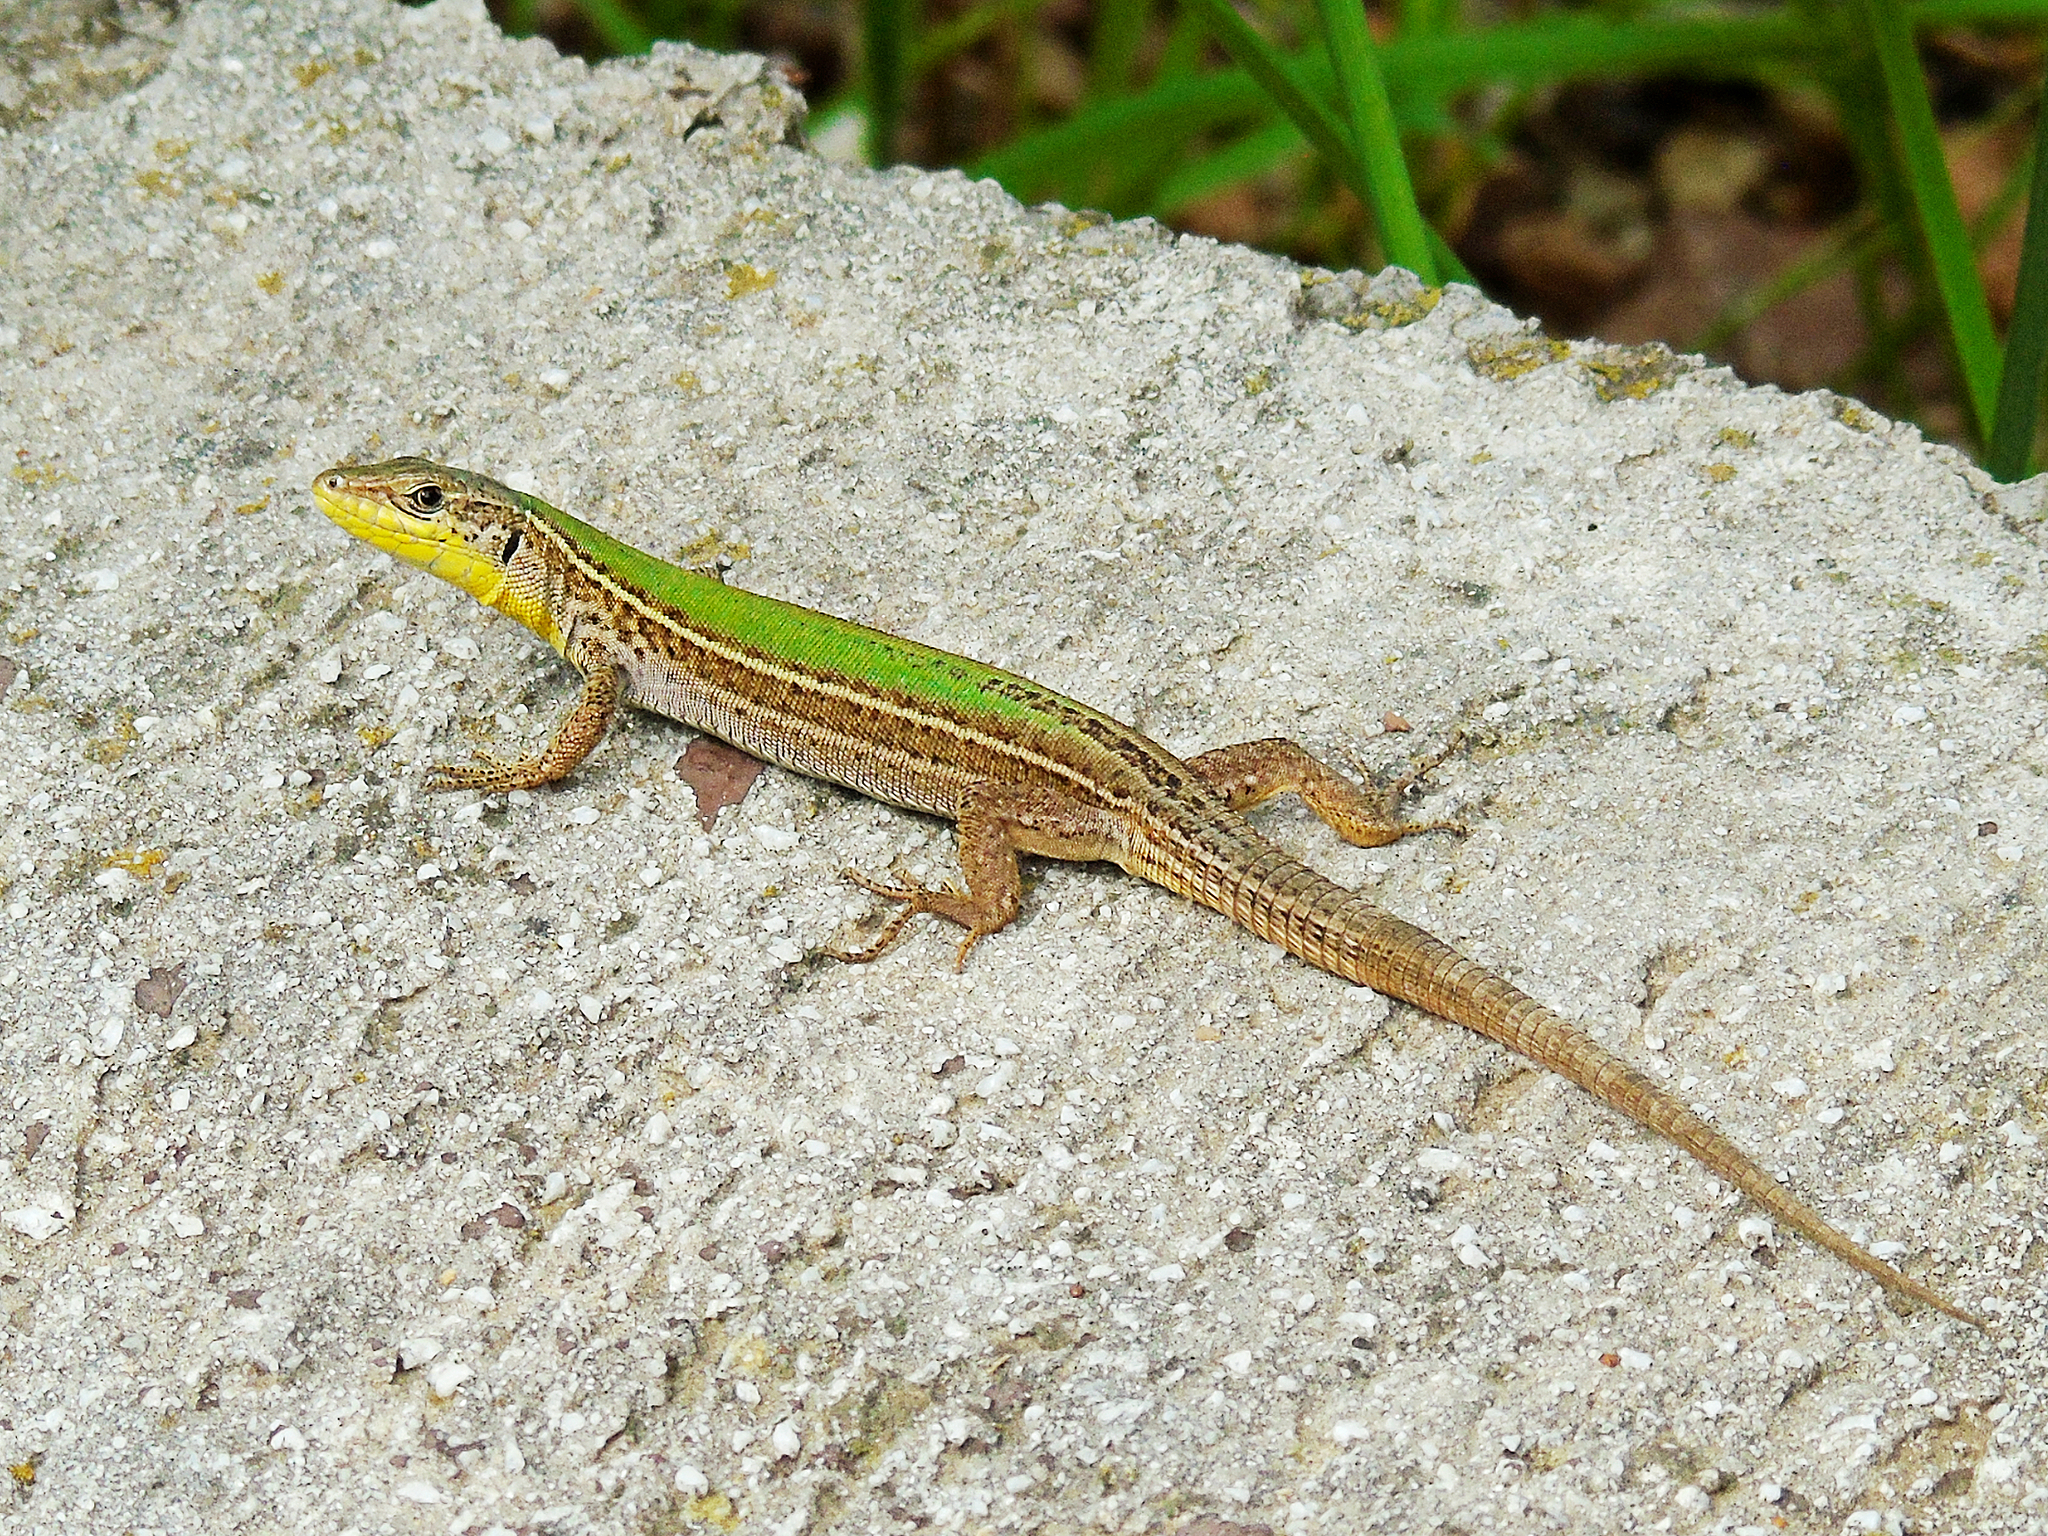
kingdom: Animalia
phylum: Chordata
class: Squamata
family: Lacertidae
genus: Podarcis
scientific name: Podarcis melisellensis
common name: Dalmatian wall lizard
